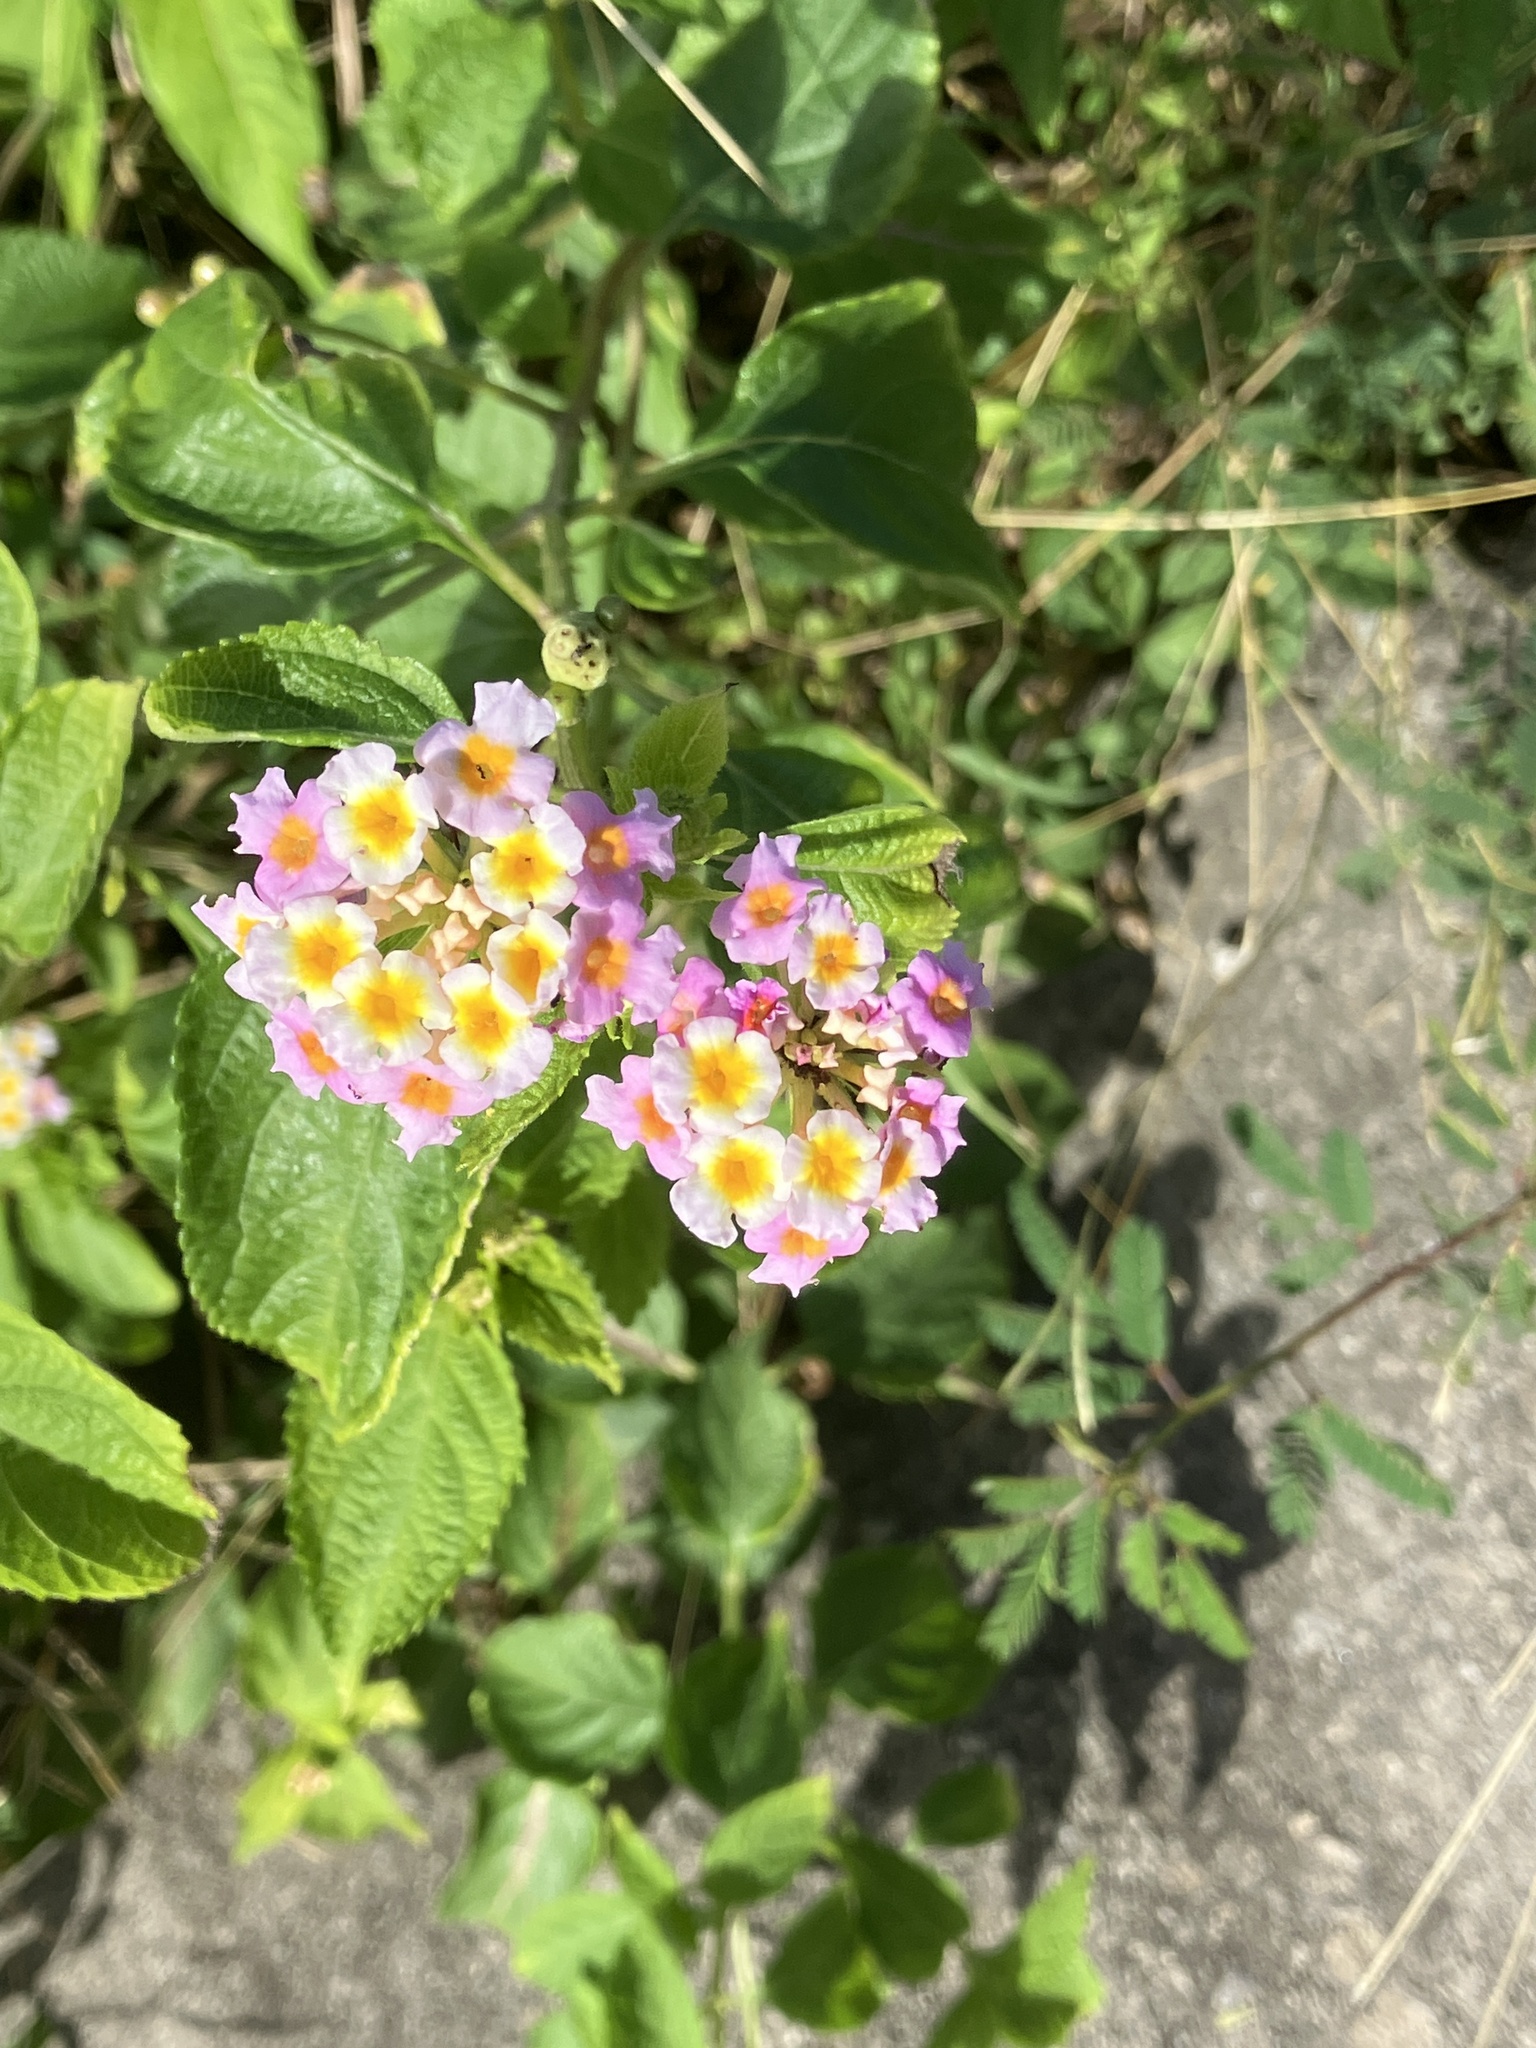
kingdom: Plantae
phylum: Tracheophyta
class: Magnoliopsida
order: Lamiales
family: Verbenaceae
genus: Lantana
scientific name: Lantana strigocamara
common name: Lantana
